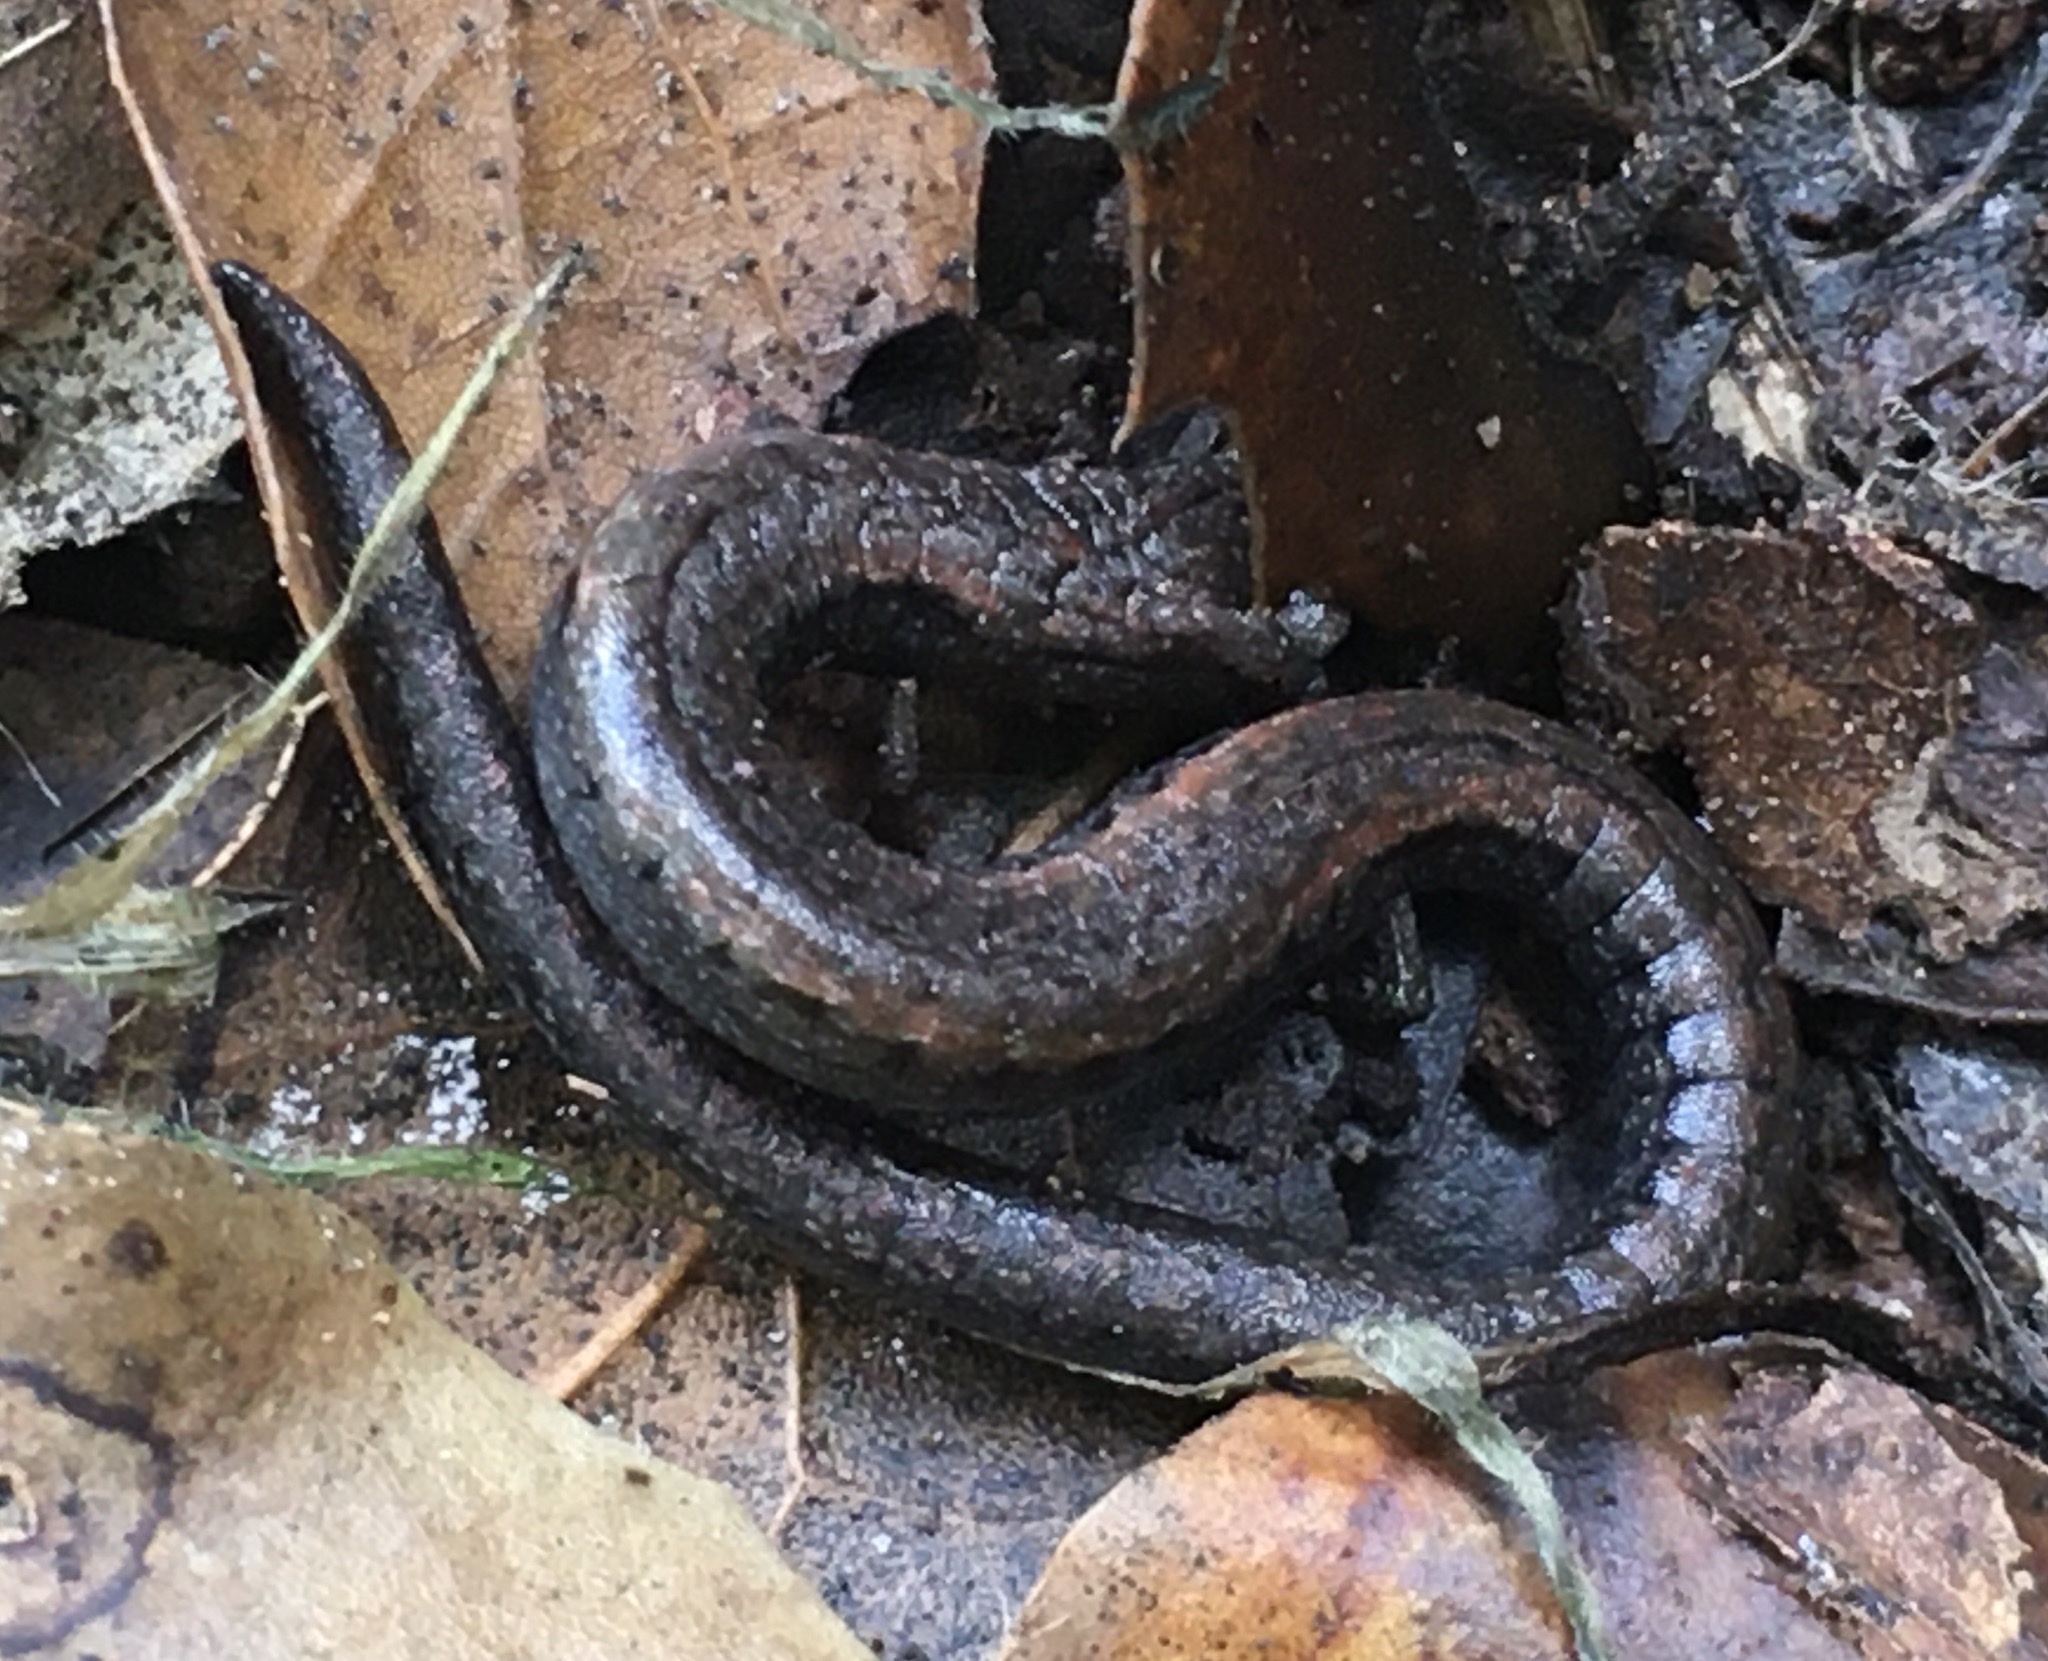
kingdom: Animalia
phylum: Chordata
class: Amphibia
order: Caudata
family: Plethodontidae
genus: Batrachoseps
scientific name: Batrachoseps nigriventris
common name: Black-bellied slender salamander
